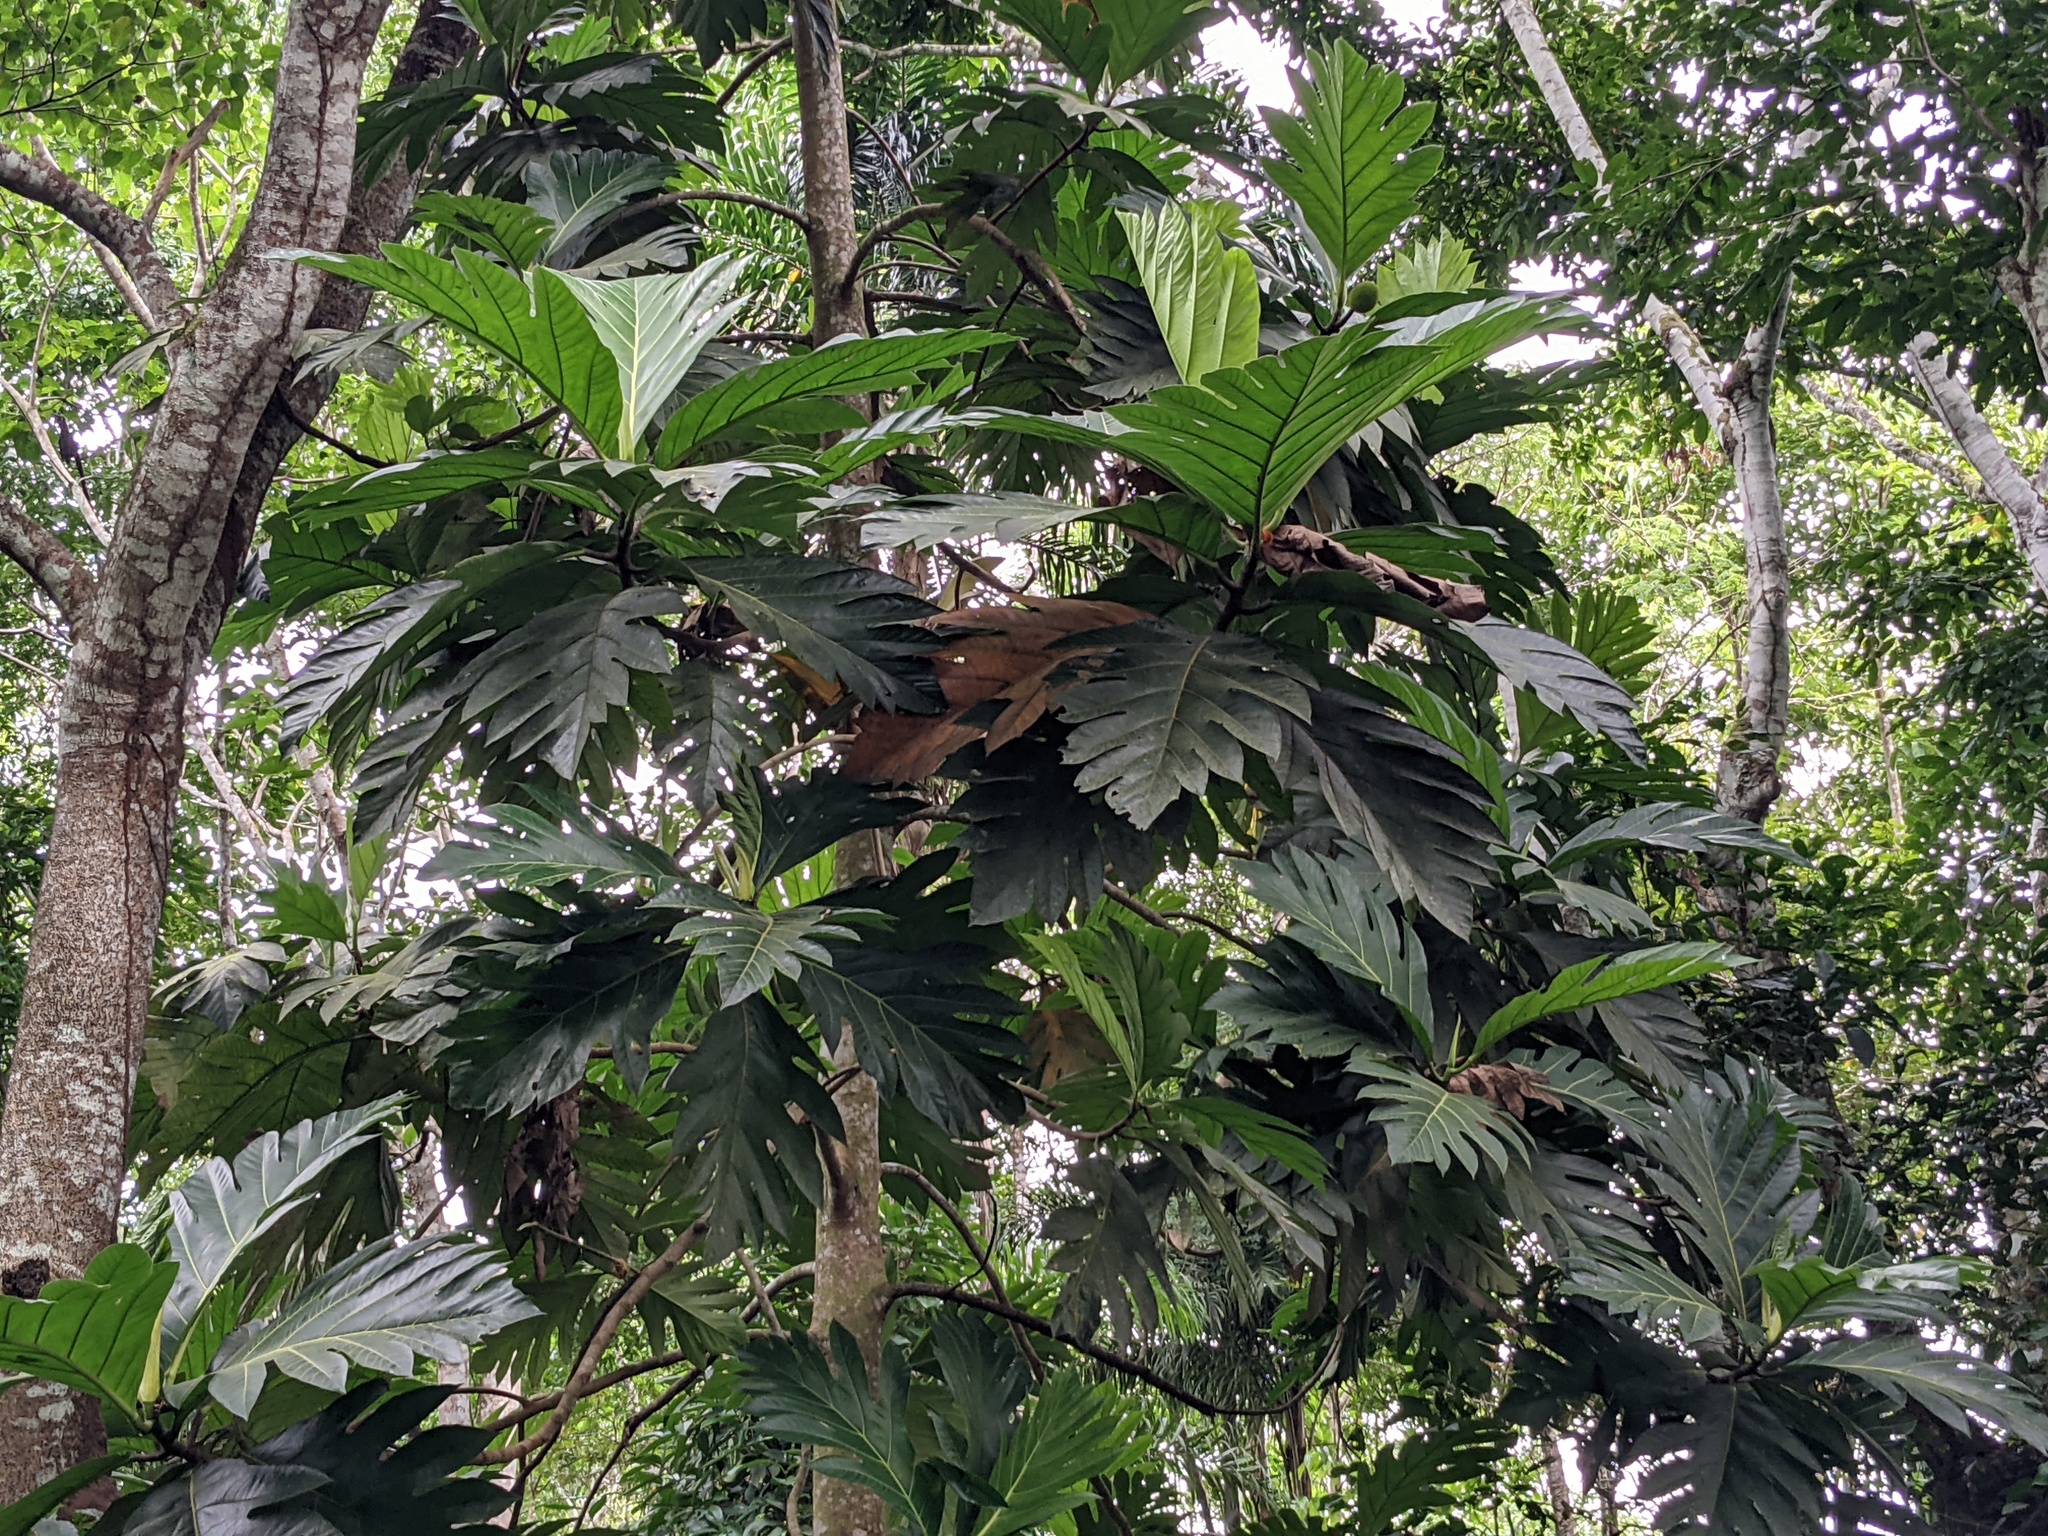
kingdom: Plantae
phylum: Tracheophyta
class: Magnoliopsida
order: Rosales
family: Moraceae
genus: Artocarpus
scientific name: Artocarpus altilis
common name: Breadfruit
